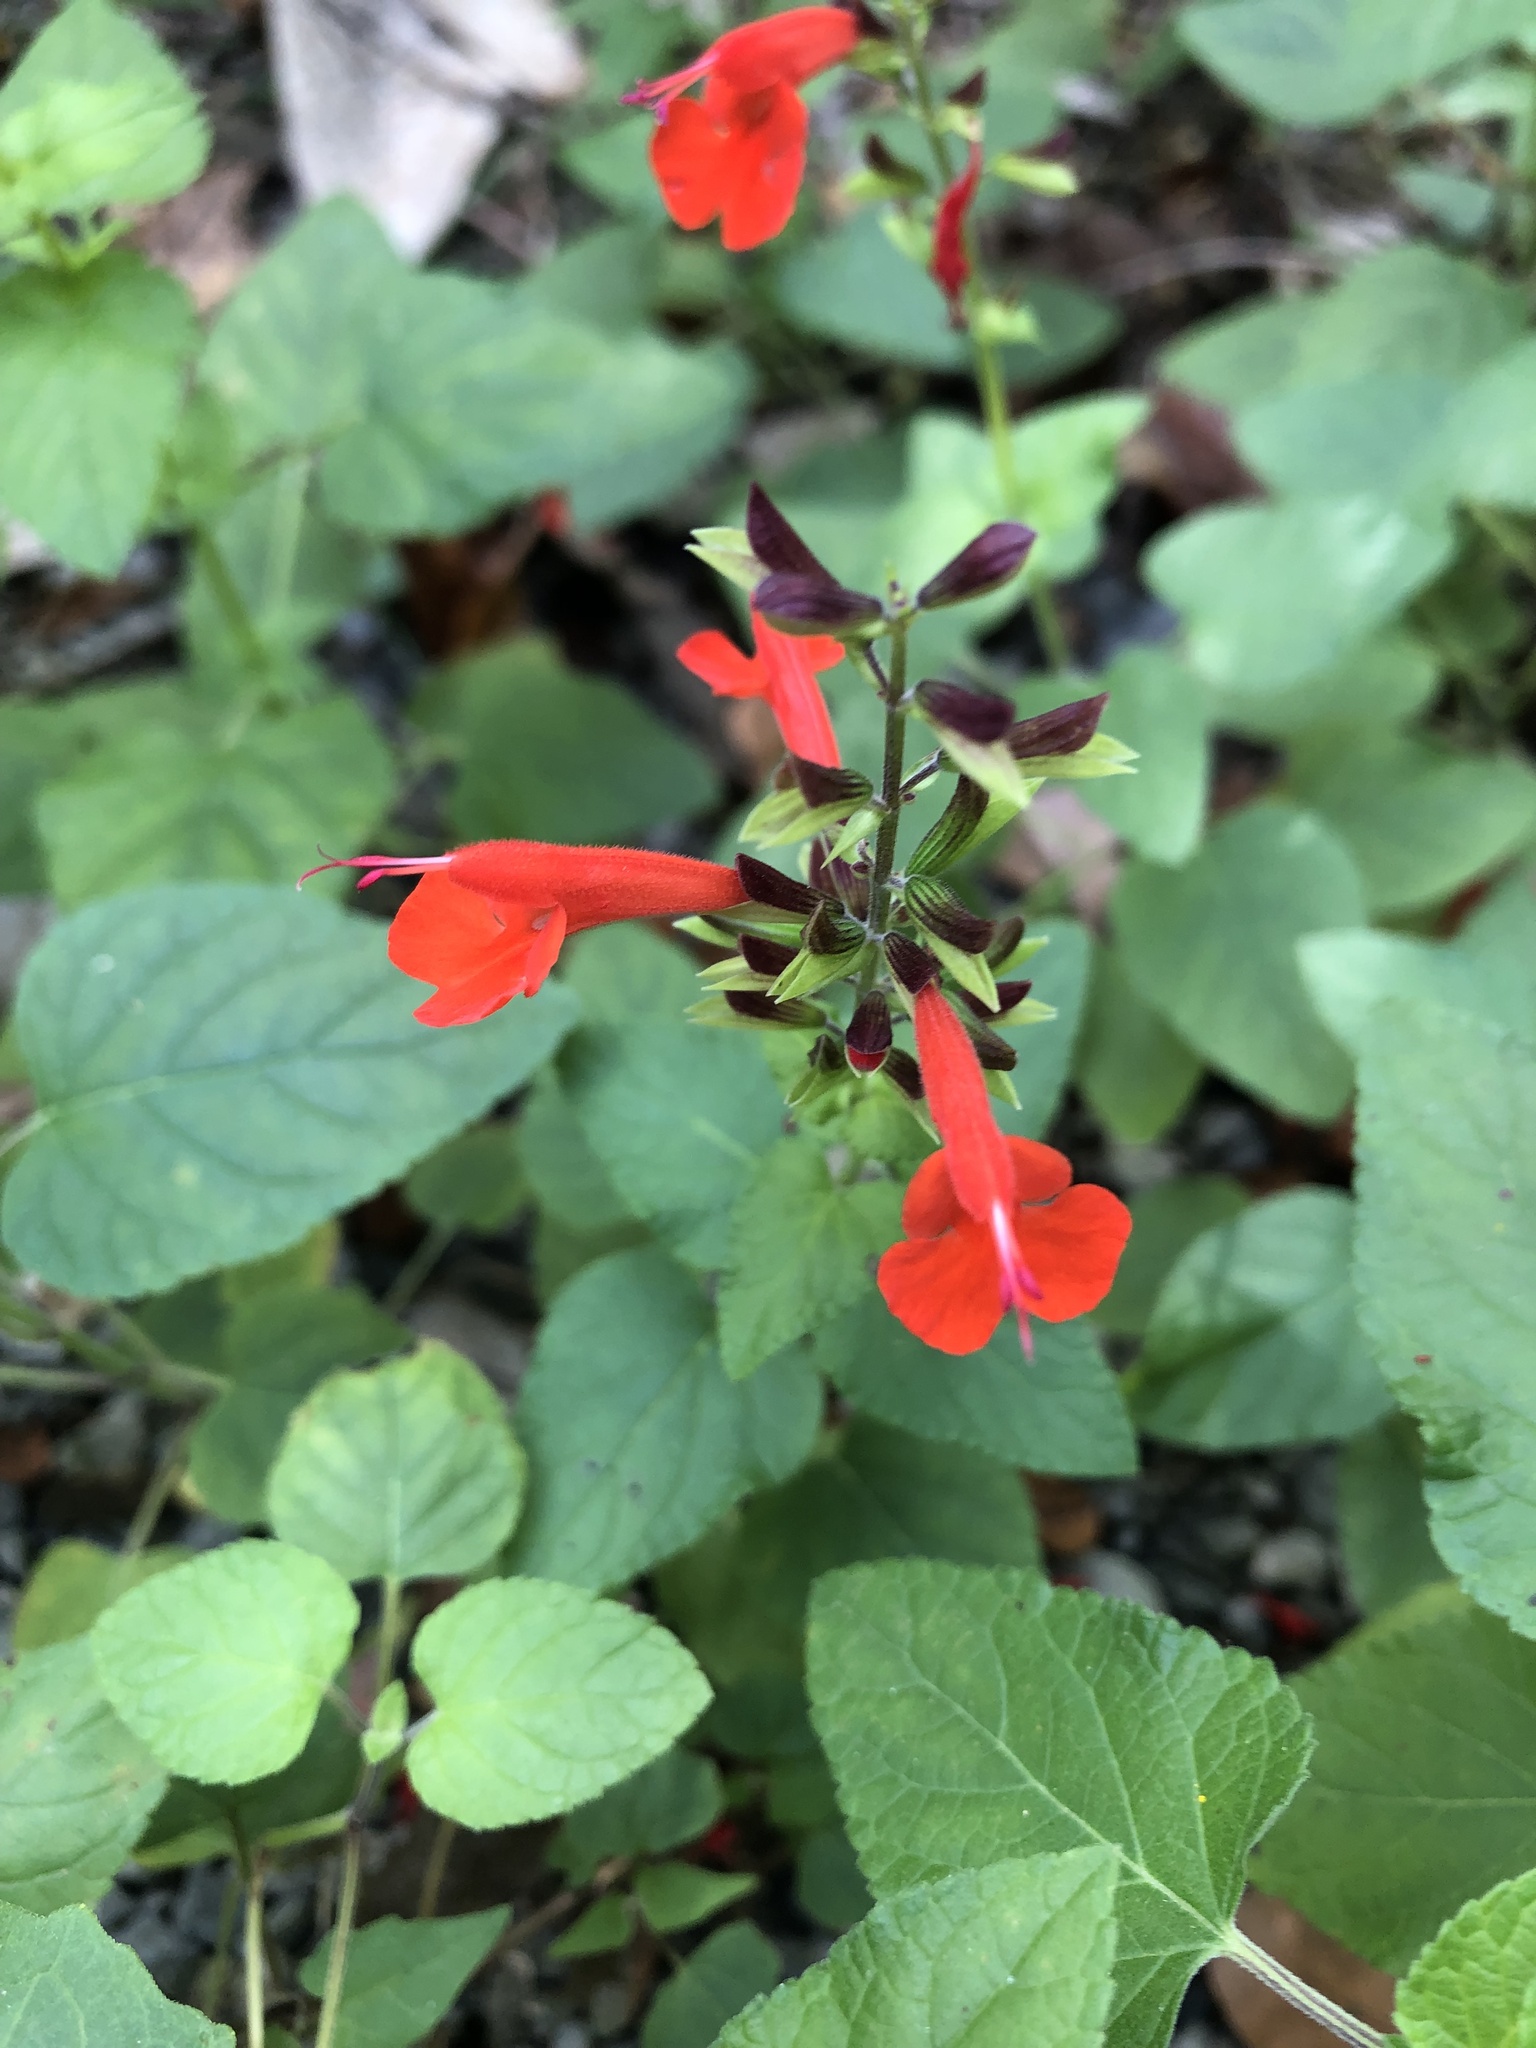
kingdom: Plantae
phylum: Tracheophyta
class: Magnoliopsida
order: Lamiales
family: Lamiaceae
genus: Salvia
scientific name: Salvia coccinea
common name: Blood sage
